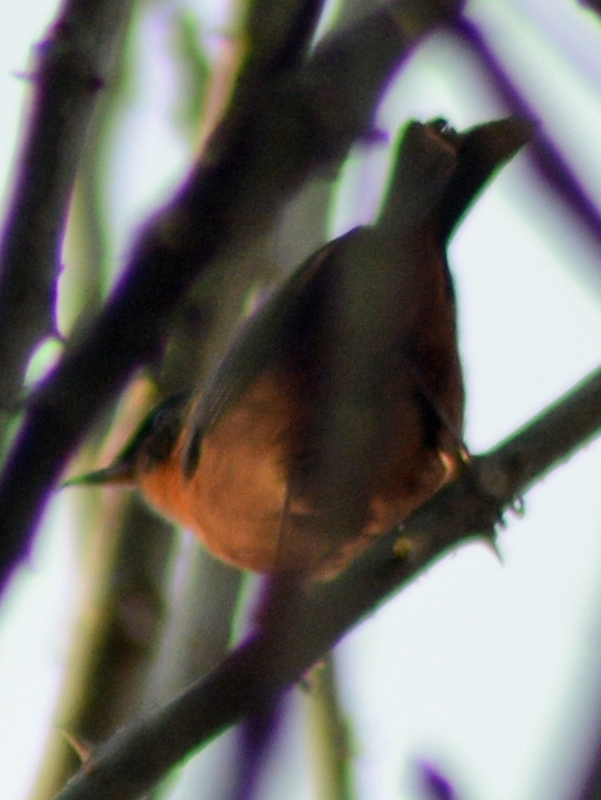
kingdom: Animalia
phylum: Chordata
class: Aves
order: Passeriformes
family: Thraupidae
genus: Diglossa
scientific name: Diglossa baritula
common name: Cinnamon-bellied flowerpiercer
